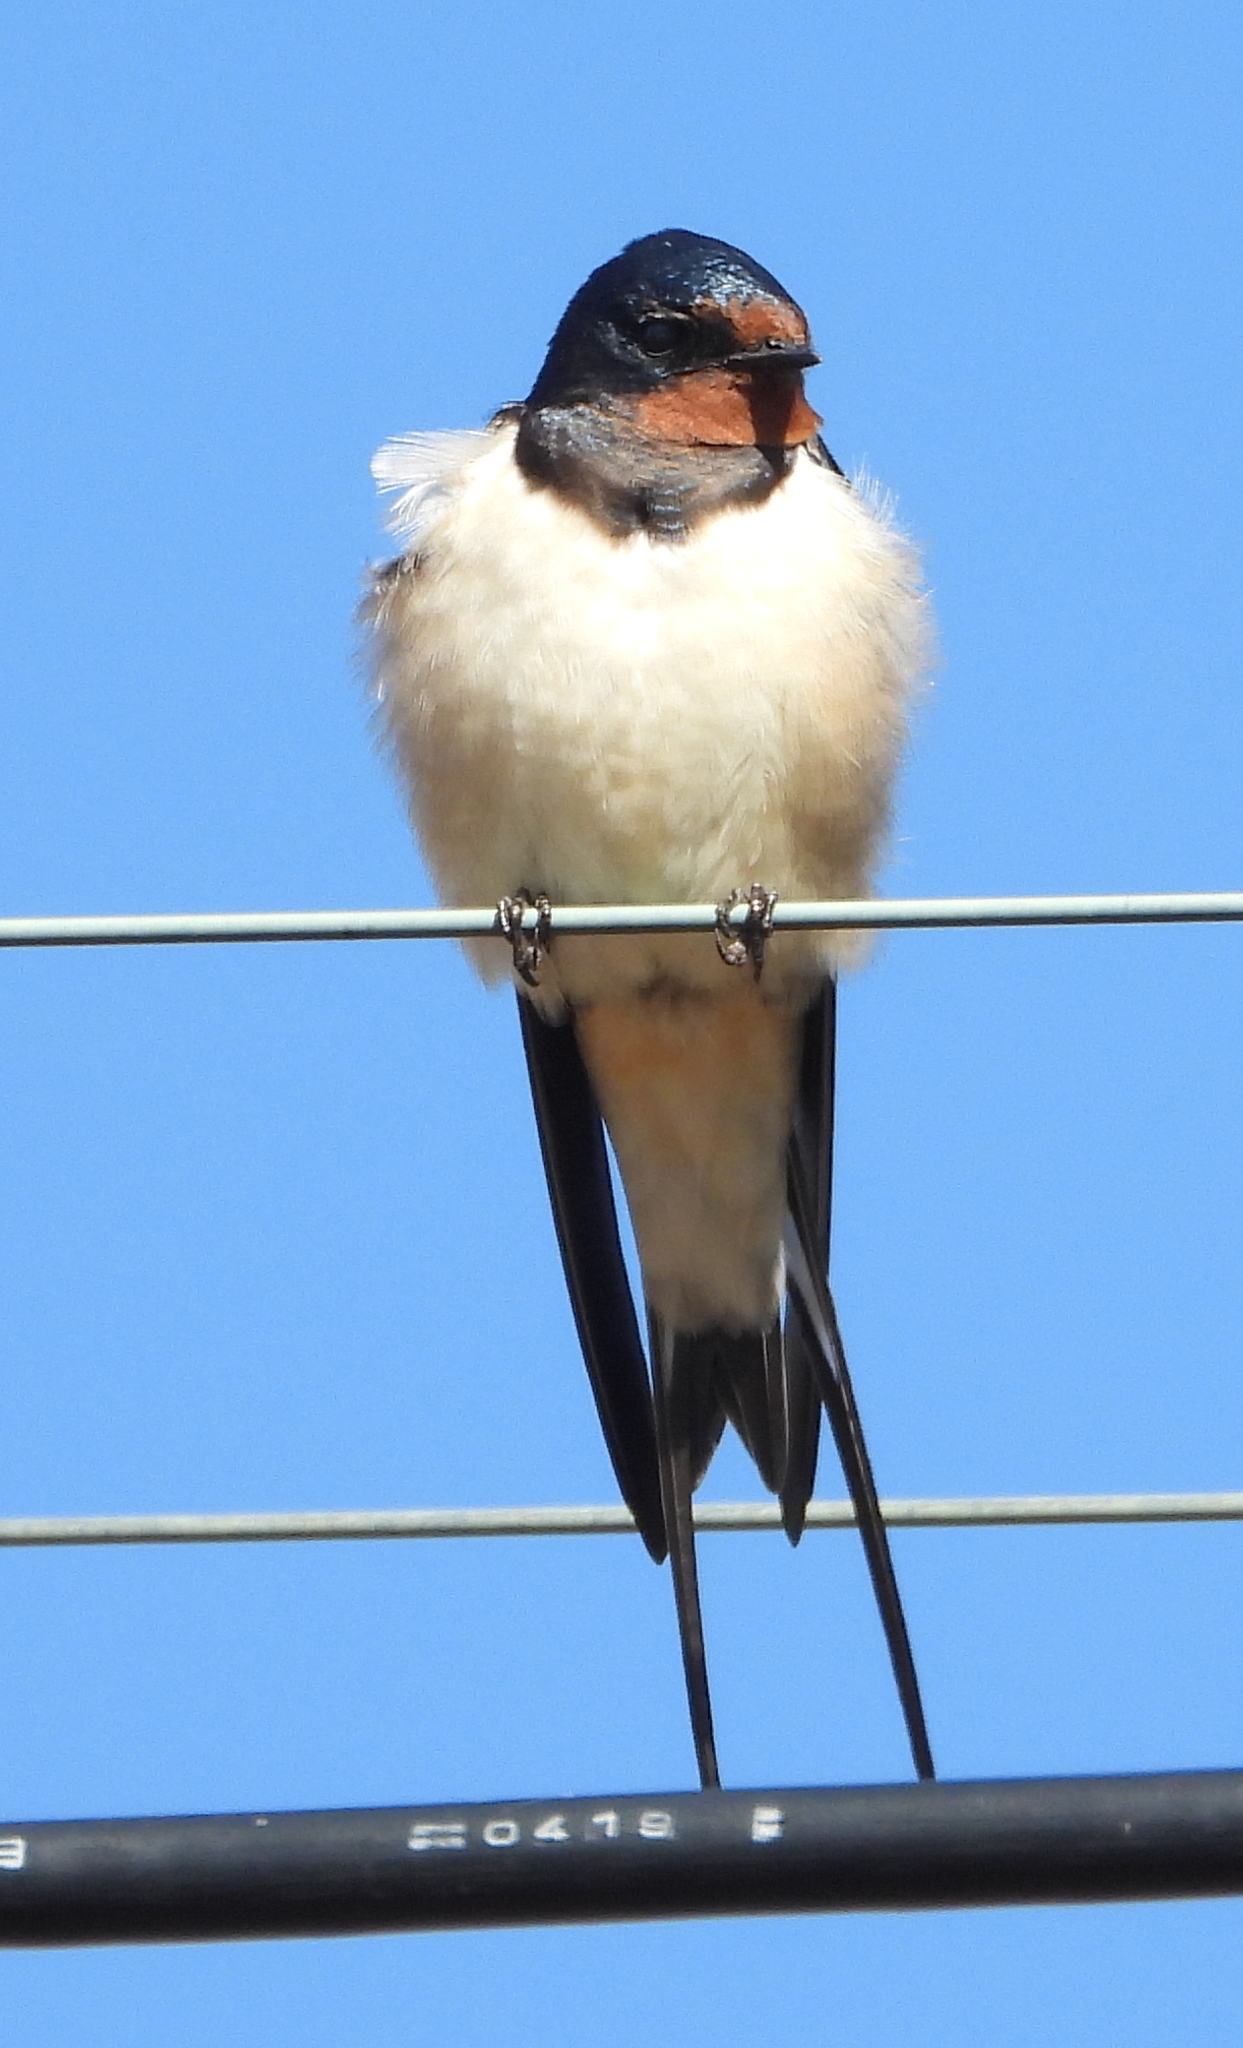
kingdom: Animalia
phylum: Chordata
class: Aves
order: Passeriformes
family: Hirundinidae
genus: Hirundo
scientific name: Hirundo rustica
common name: Barn swallow
